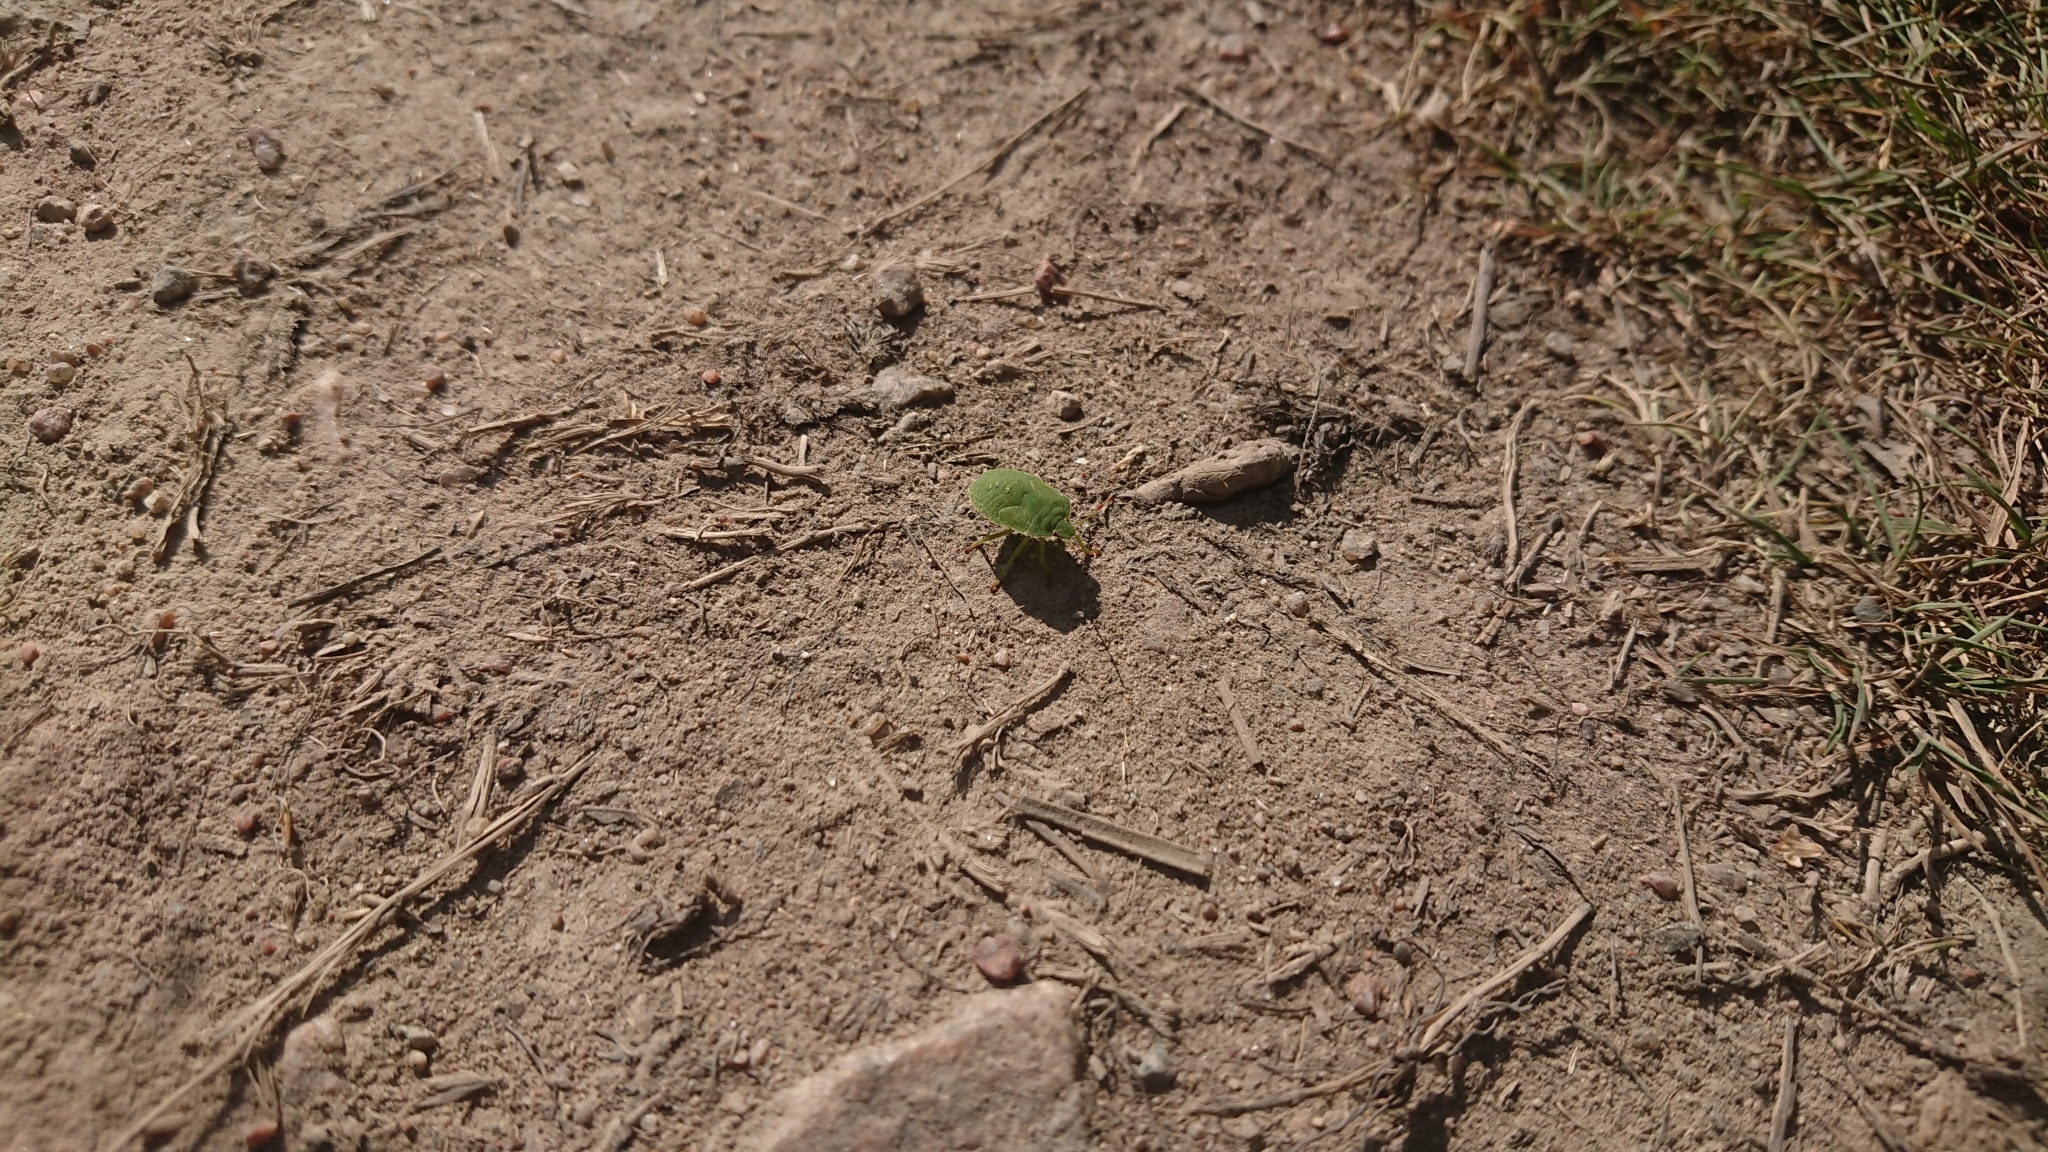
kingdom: Animalia
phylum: Arthropoda
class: Insecta
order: Hemiptera
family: Pentatomidae
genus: Palomena
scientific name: Palomena prasina
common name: Green shieldbug
